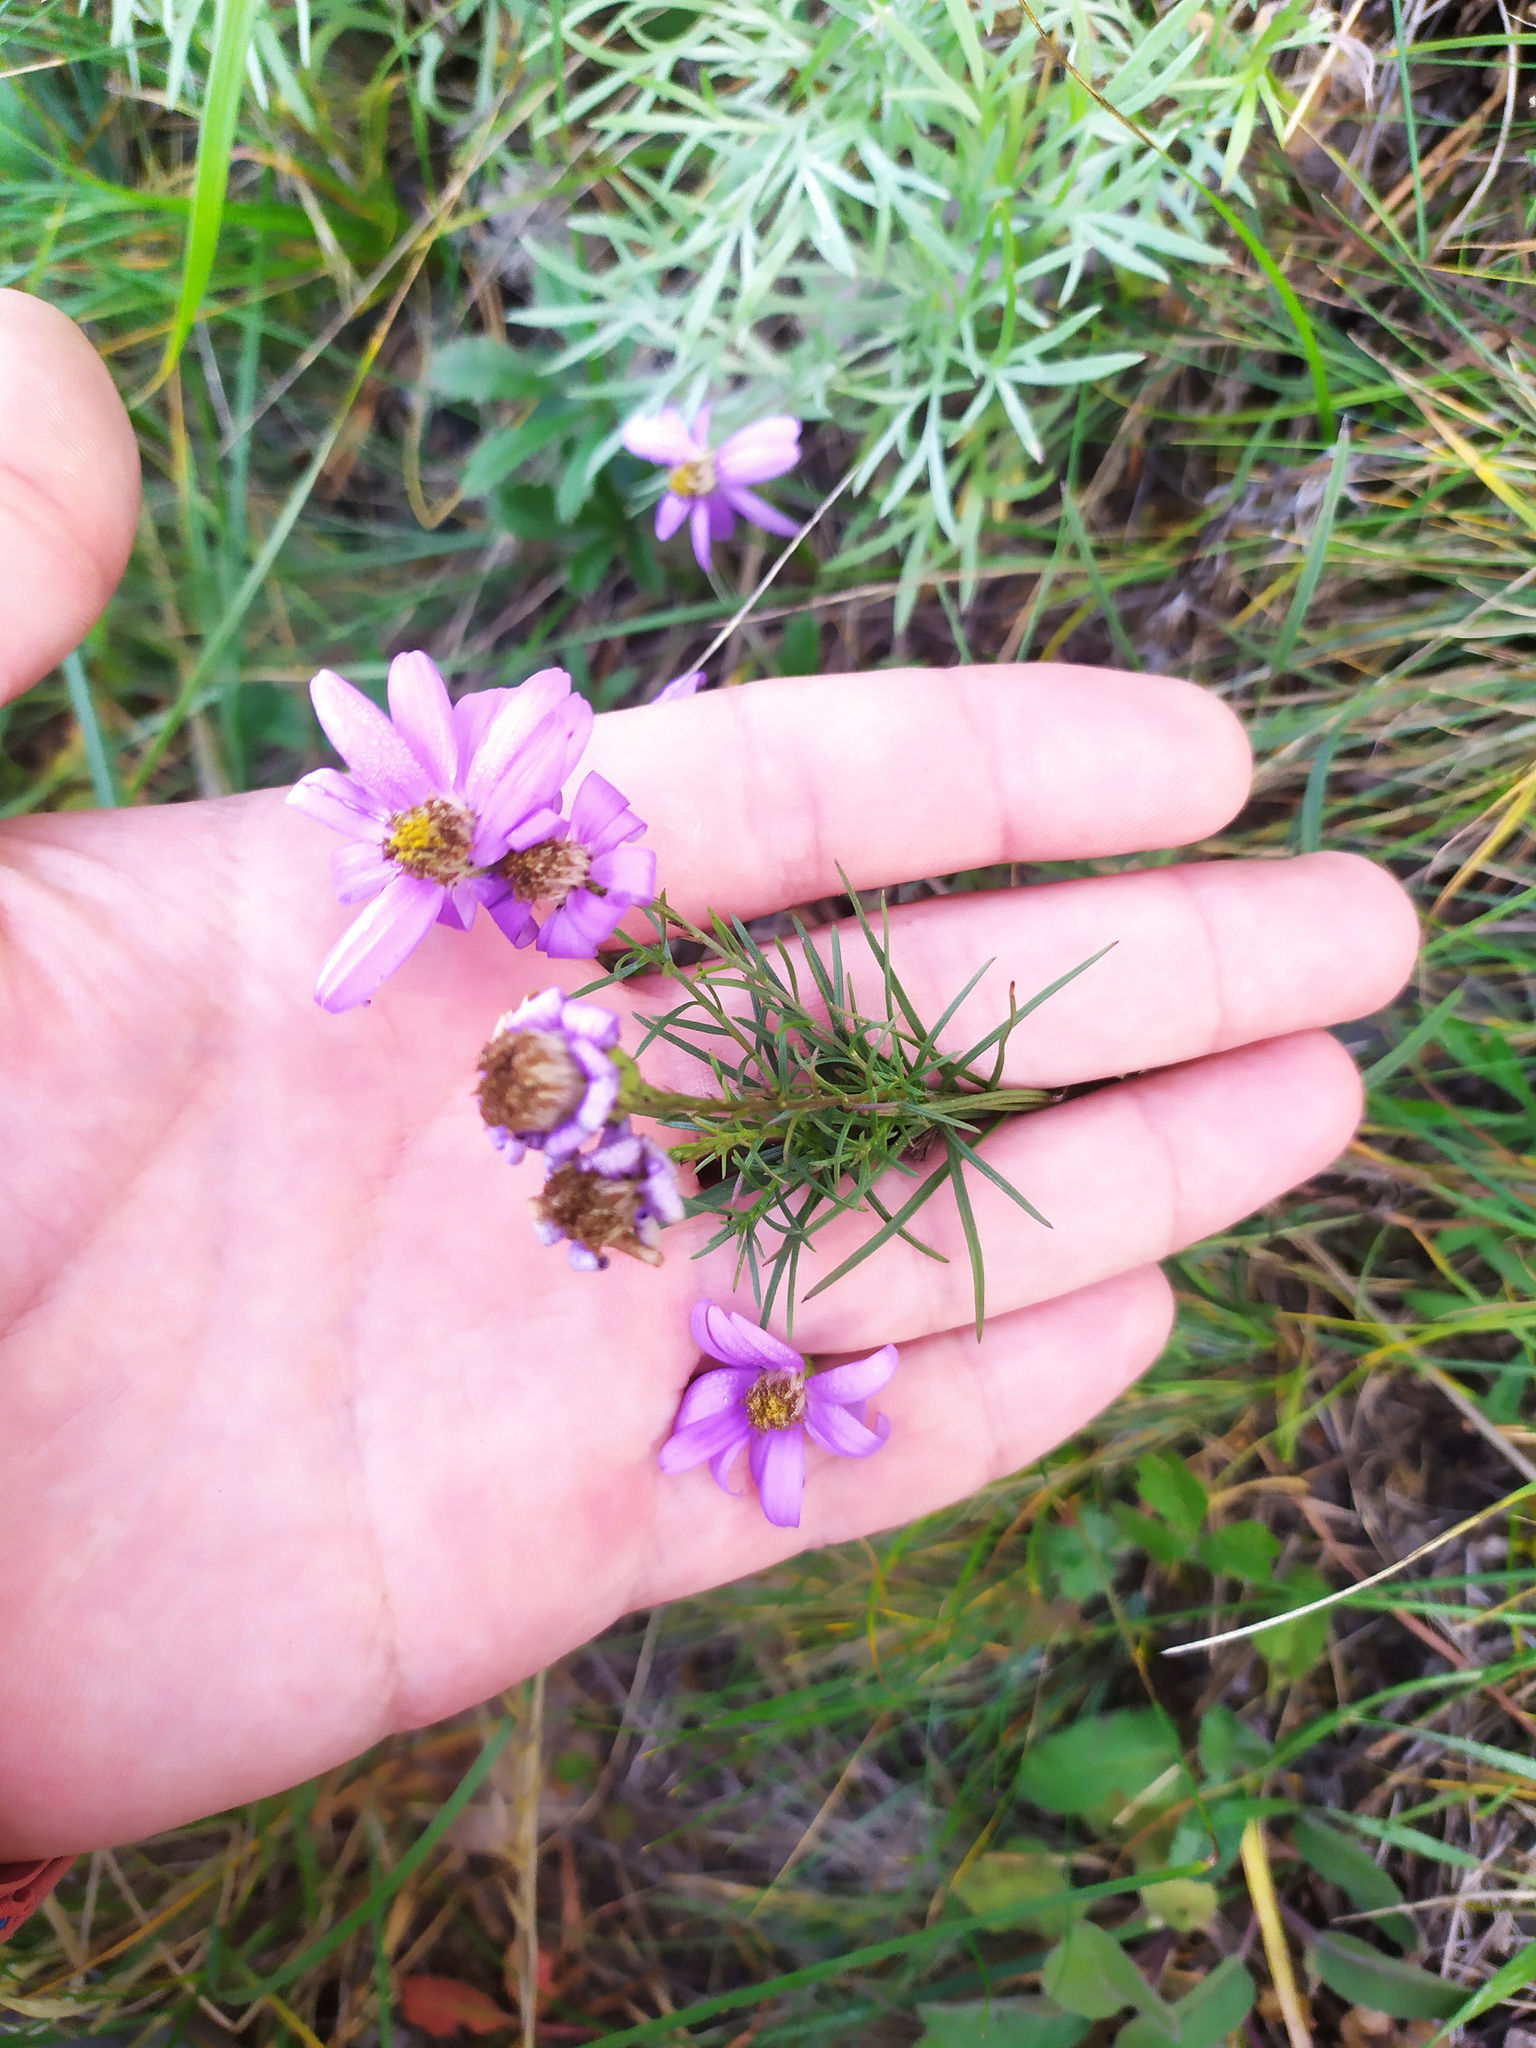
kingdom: Plantae
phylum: Tracheophyta
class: Magnoliopsida
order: Asterales
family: Asteraceae
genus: Galatella
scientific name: Galatella angustissima
